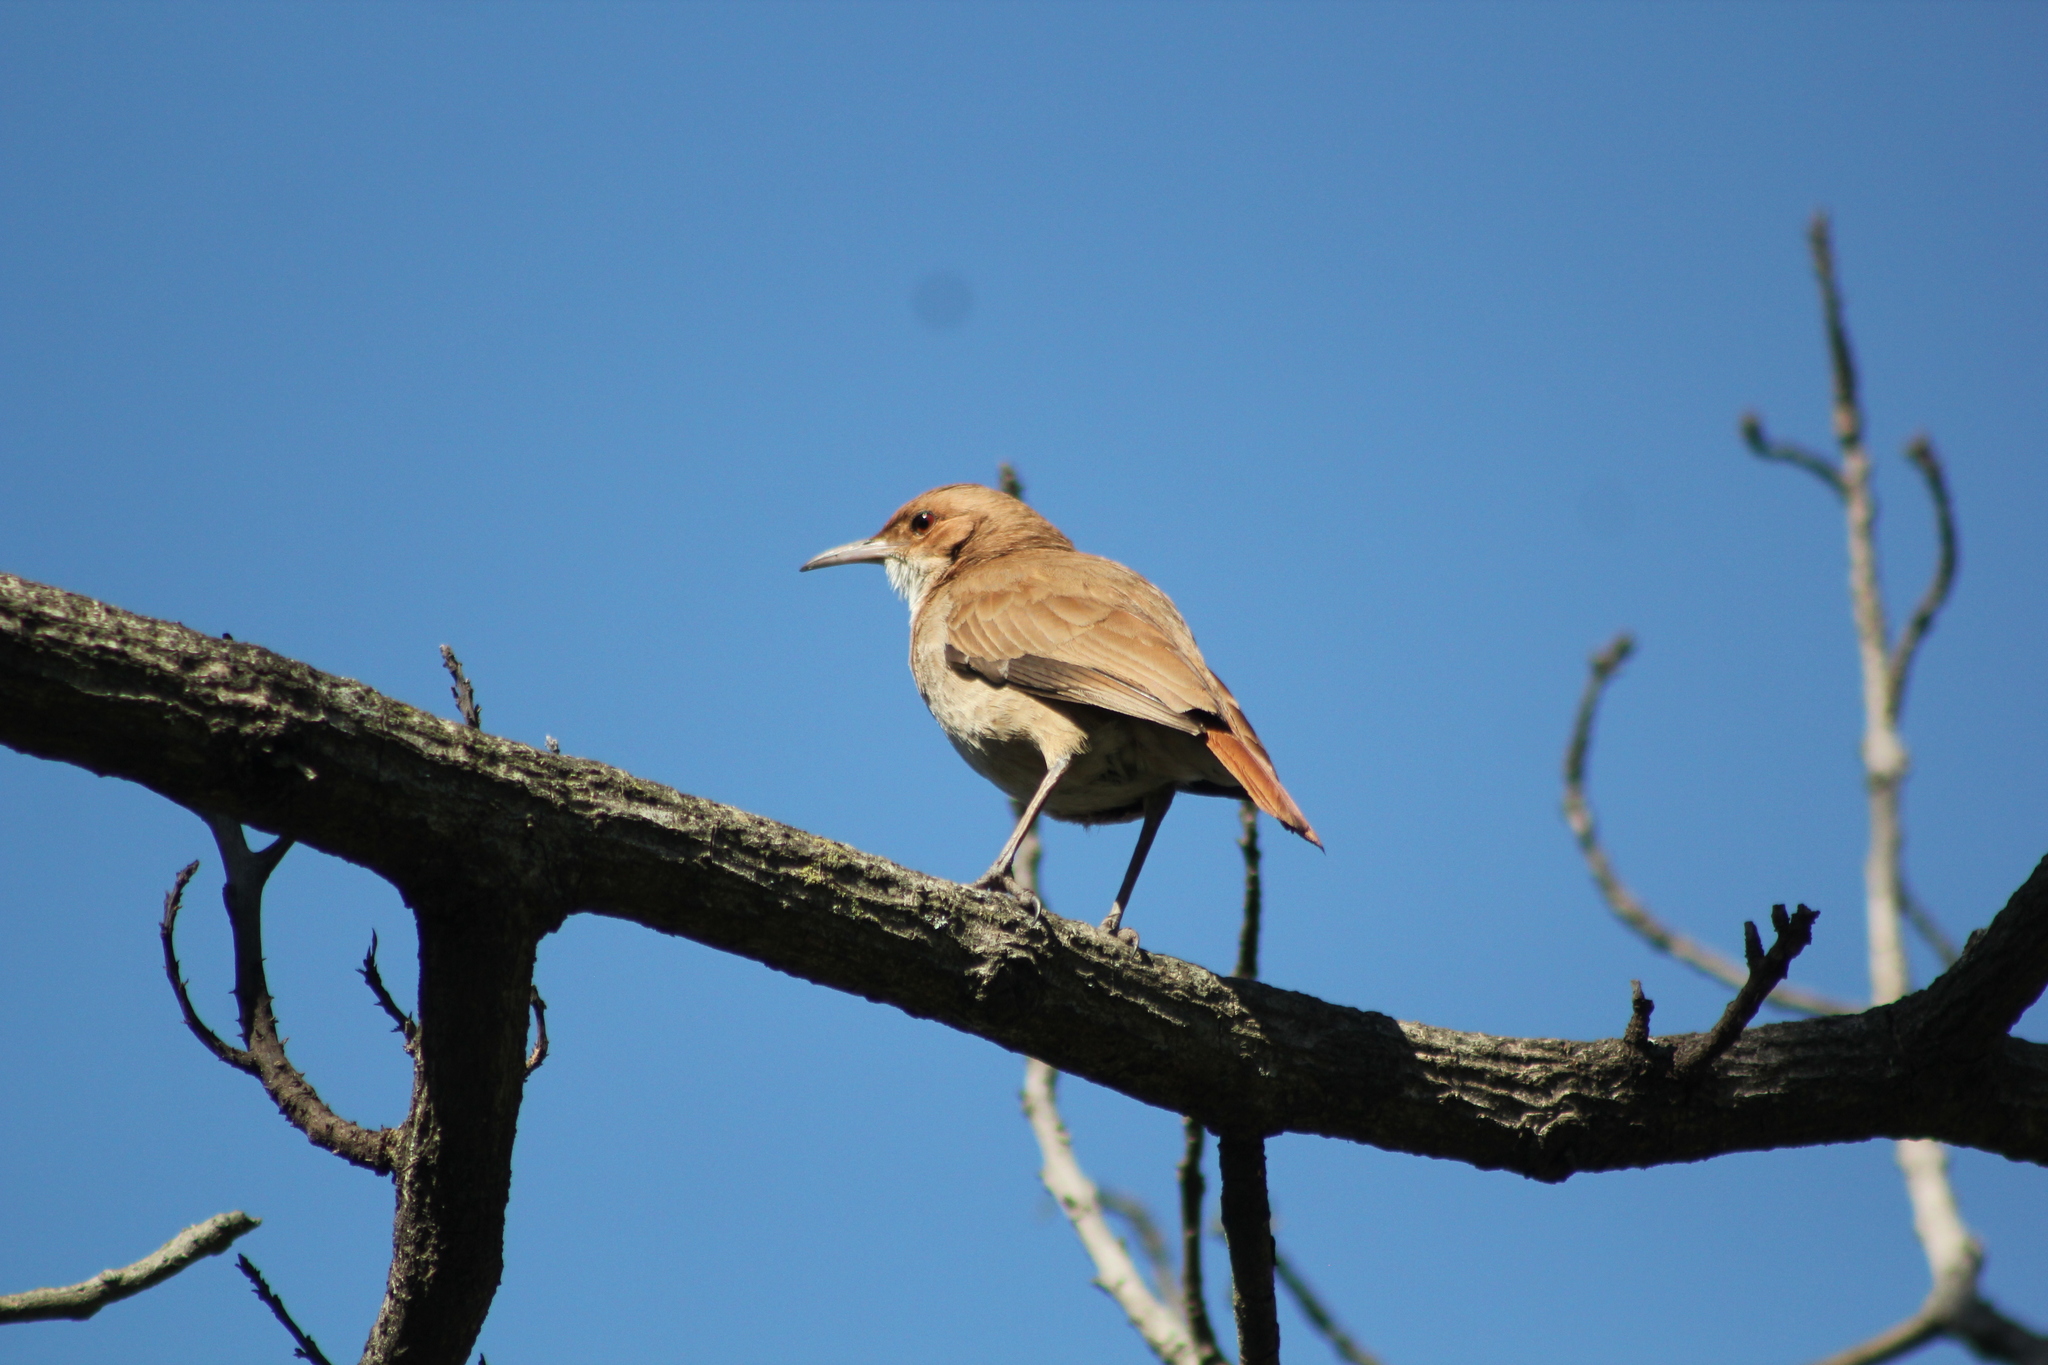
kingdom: Animalia
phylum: Chordata
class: Aves
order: Passeriformes
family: Furnariidae
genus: Furnarius
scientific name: Furnarius rufus
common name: Rufous hornero
